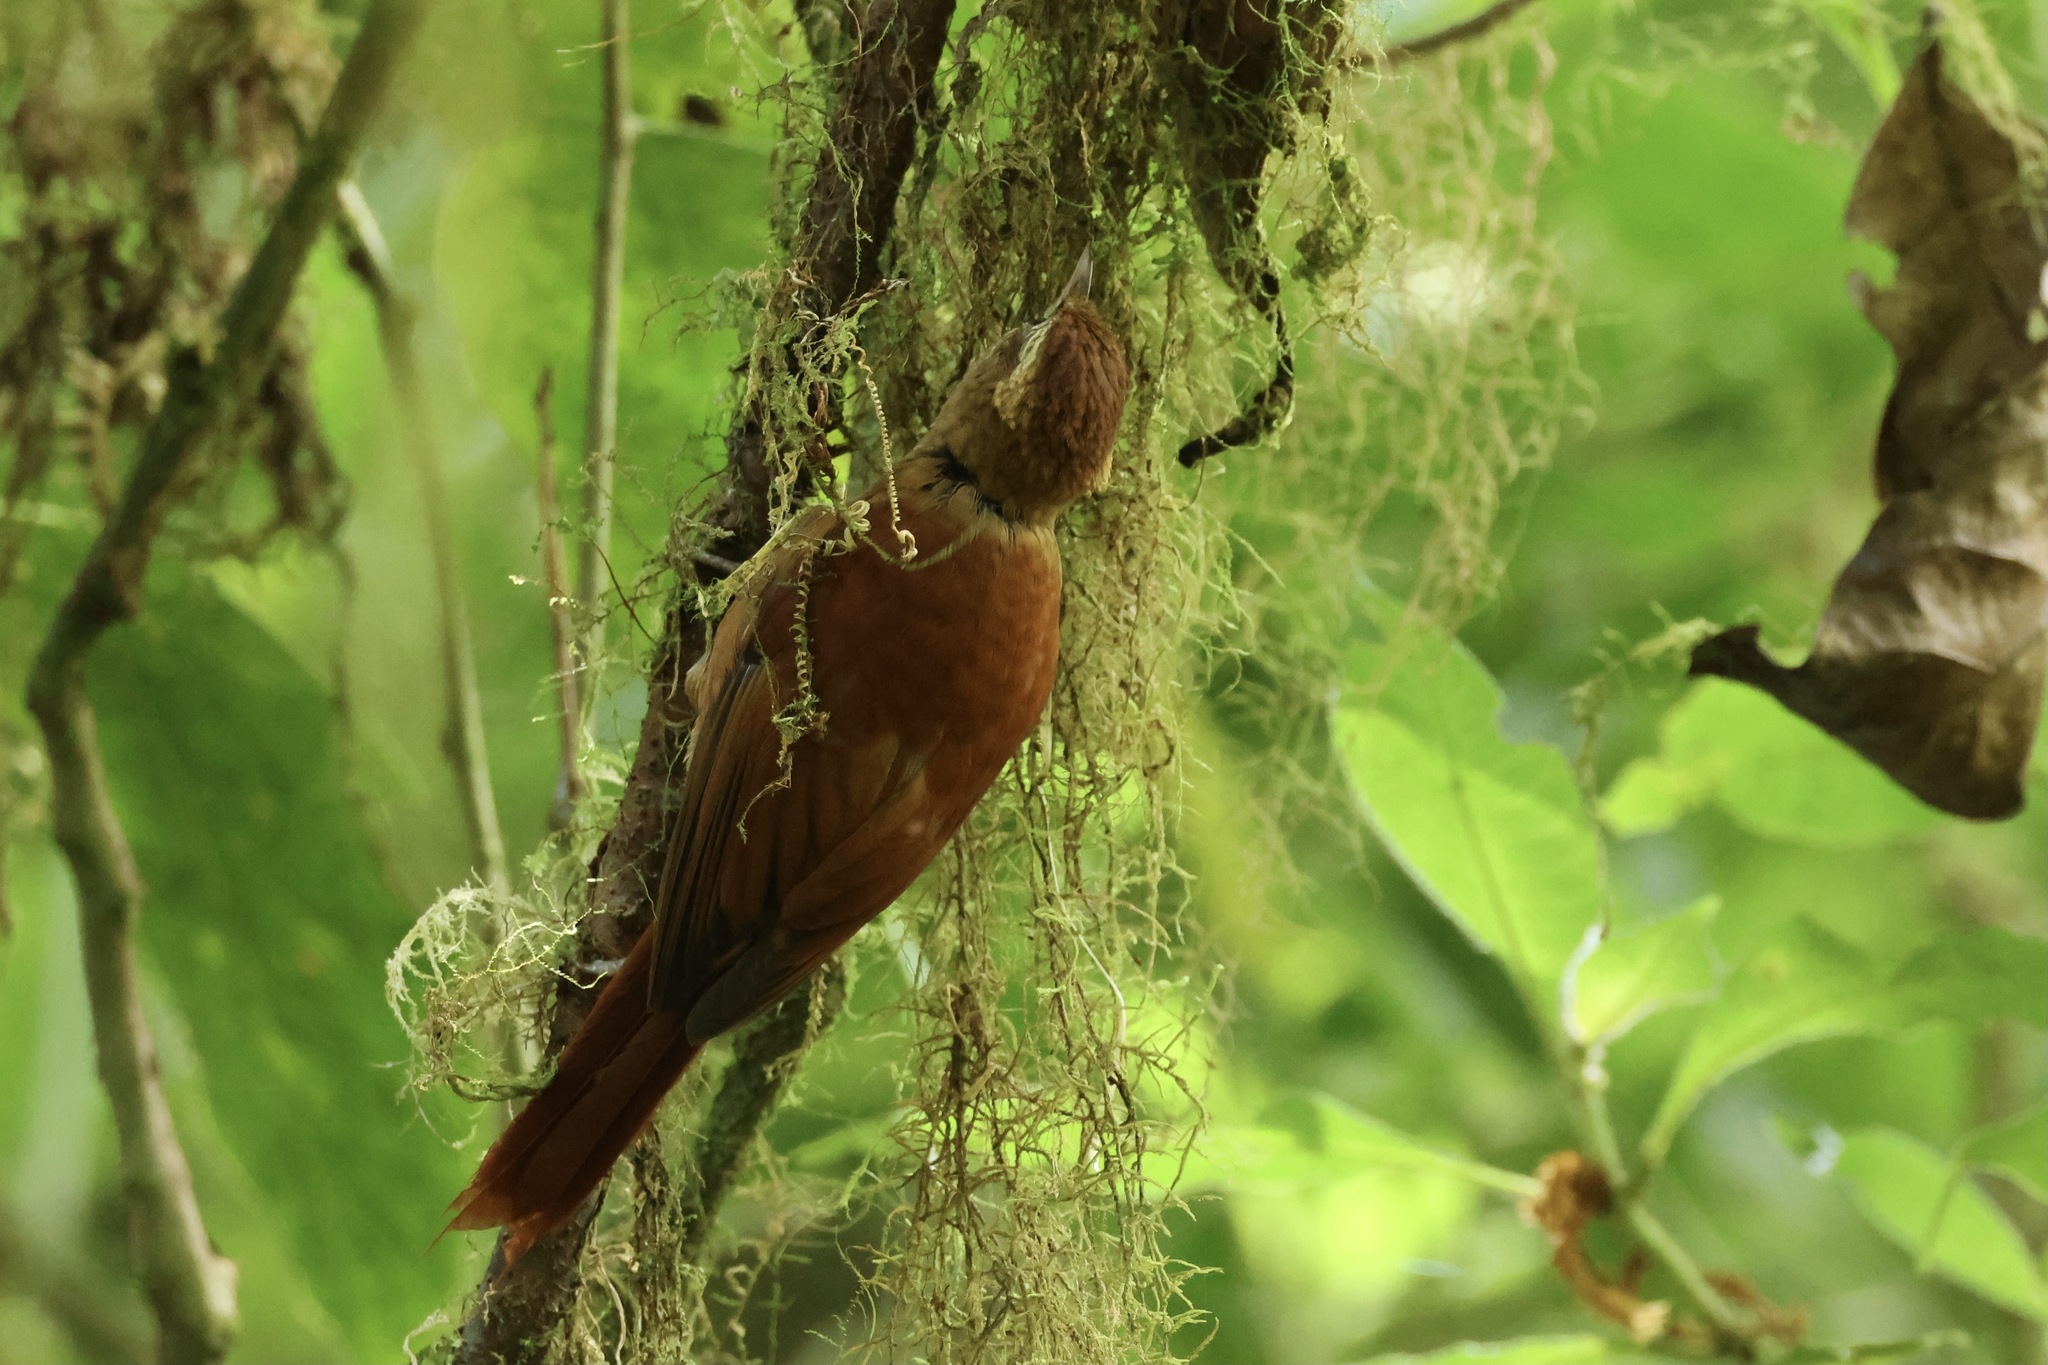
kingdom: Animalia
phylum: Chordata
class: Aves
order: Passeriformes
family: Furnariidae
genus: Margarornis
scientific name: Margarornis rubiginosus
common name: Ruddy treerunner
